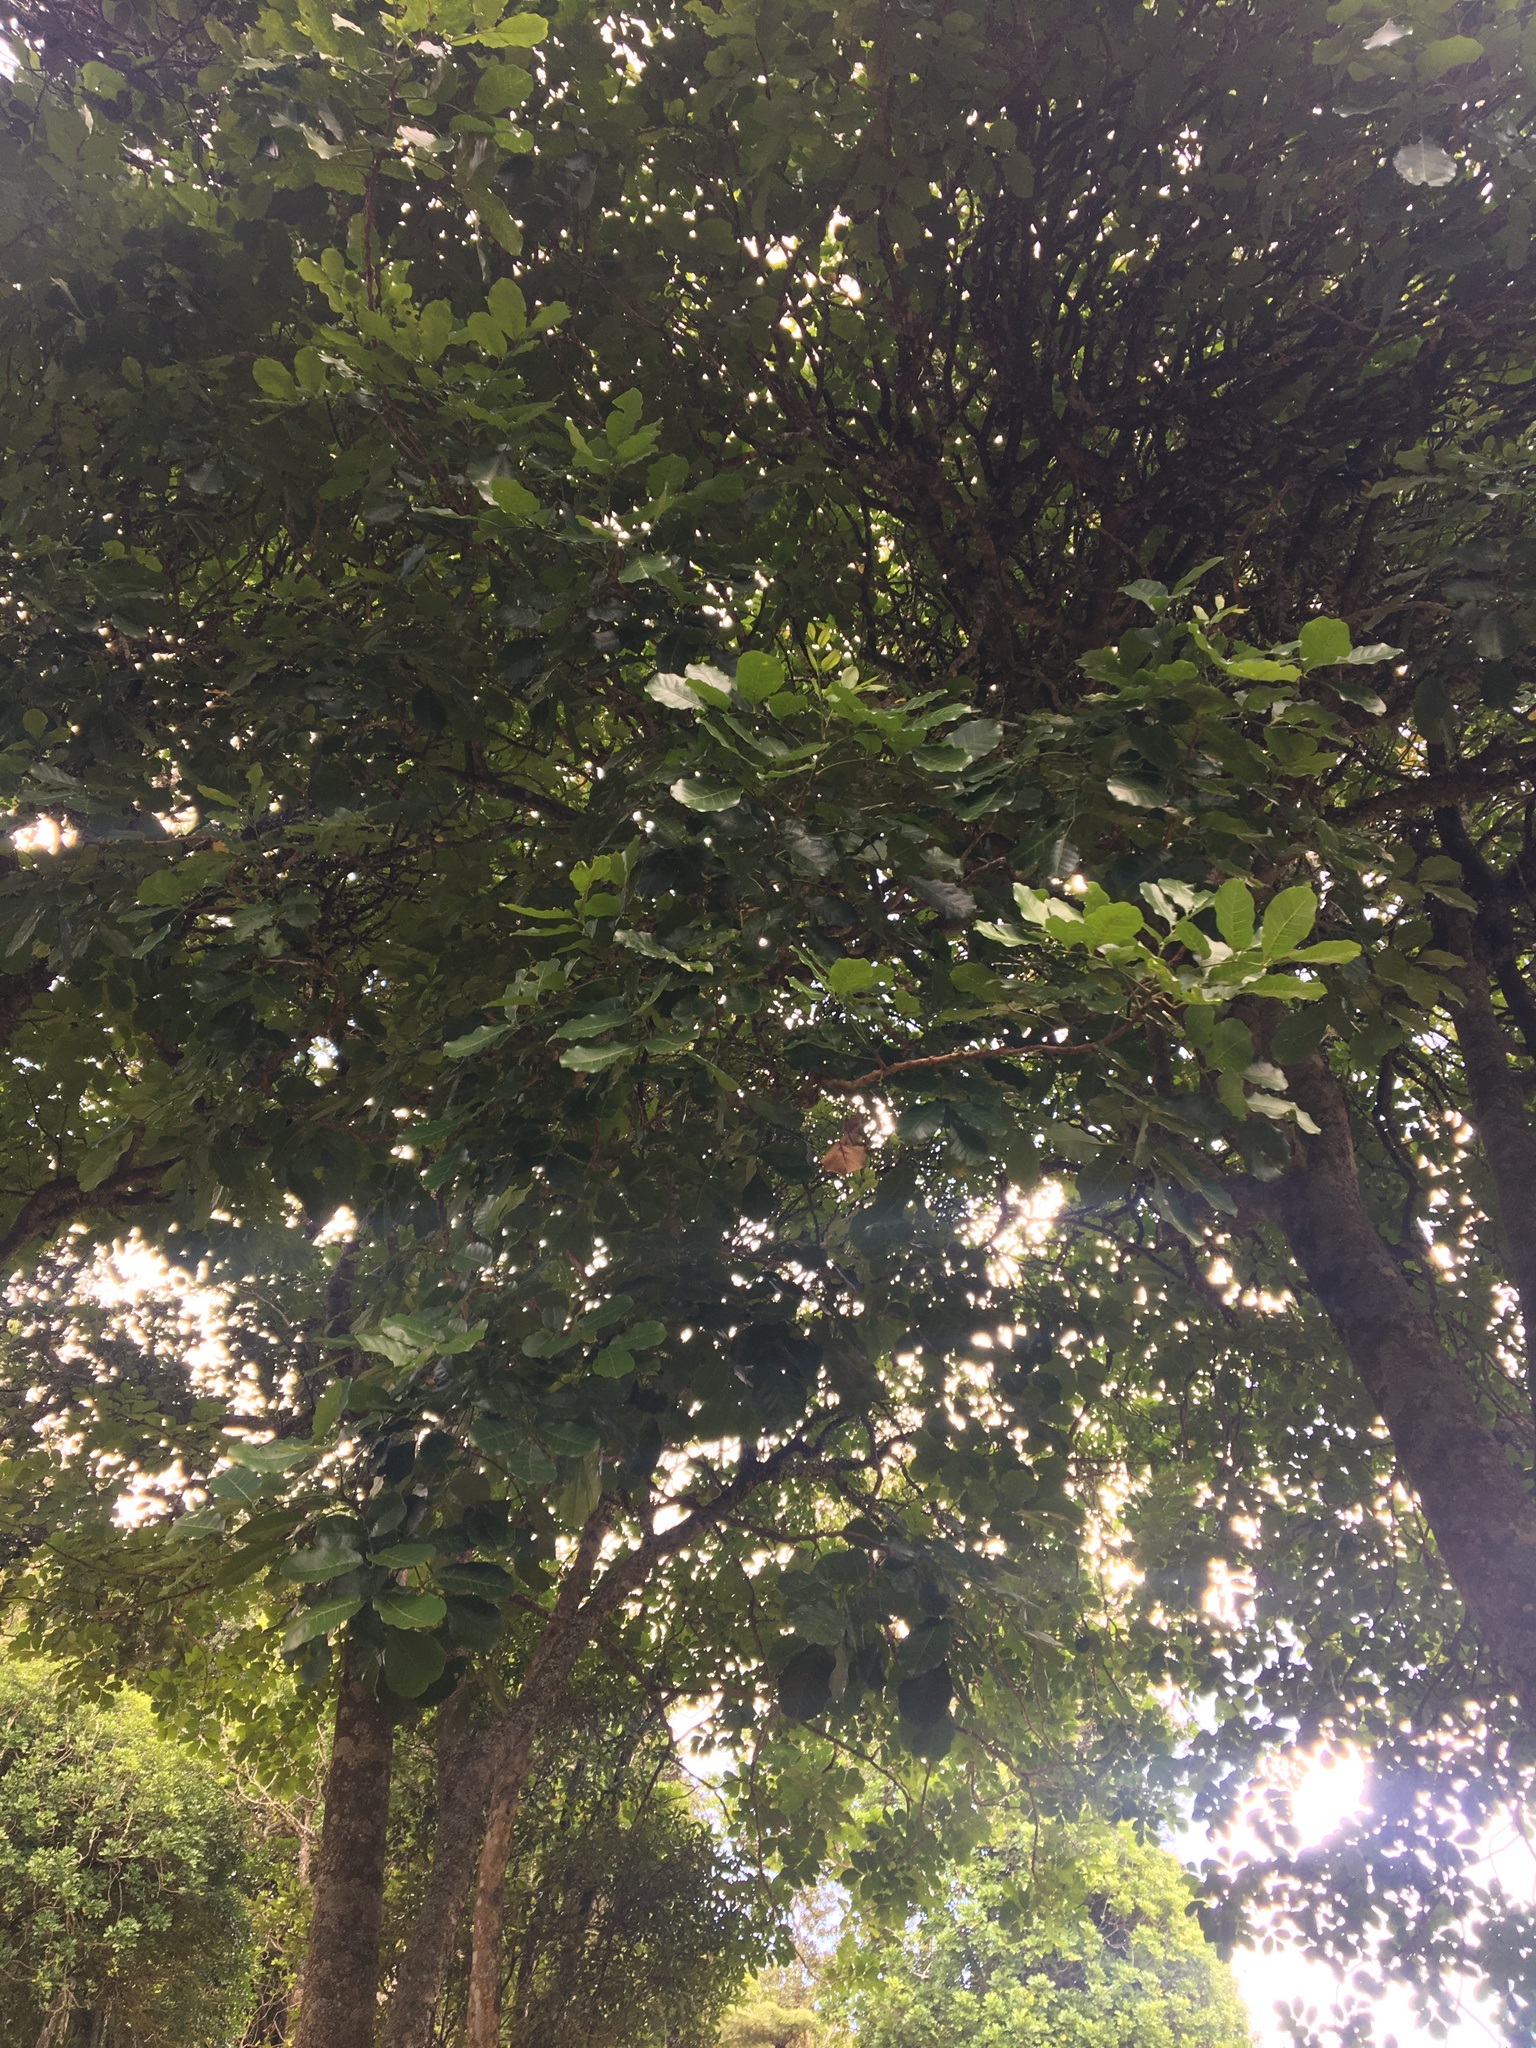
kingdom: Plantae
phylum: Tracheophyta
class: Magnoliopsida
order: Sapindales
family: Meliaceae
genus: Didymocheton
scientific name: Didymocheton spectabilis
